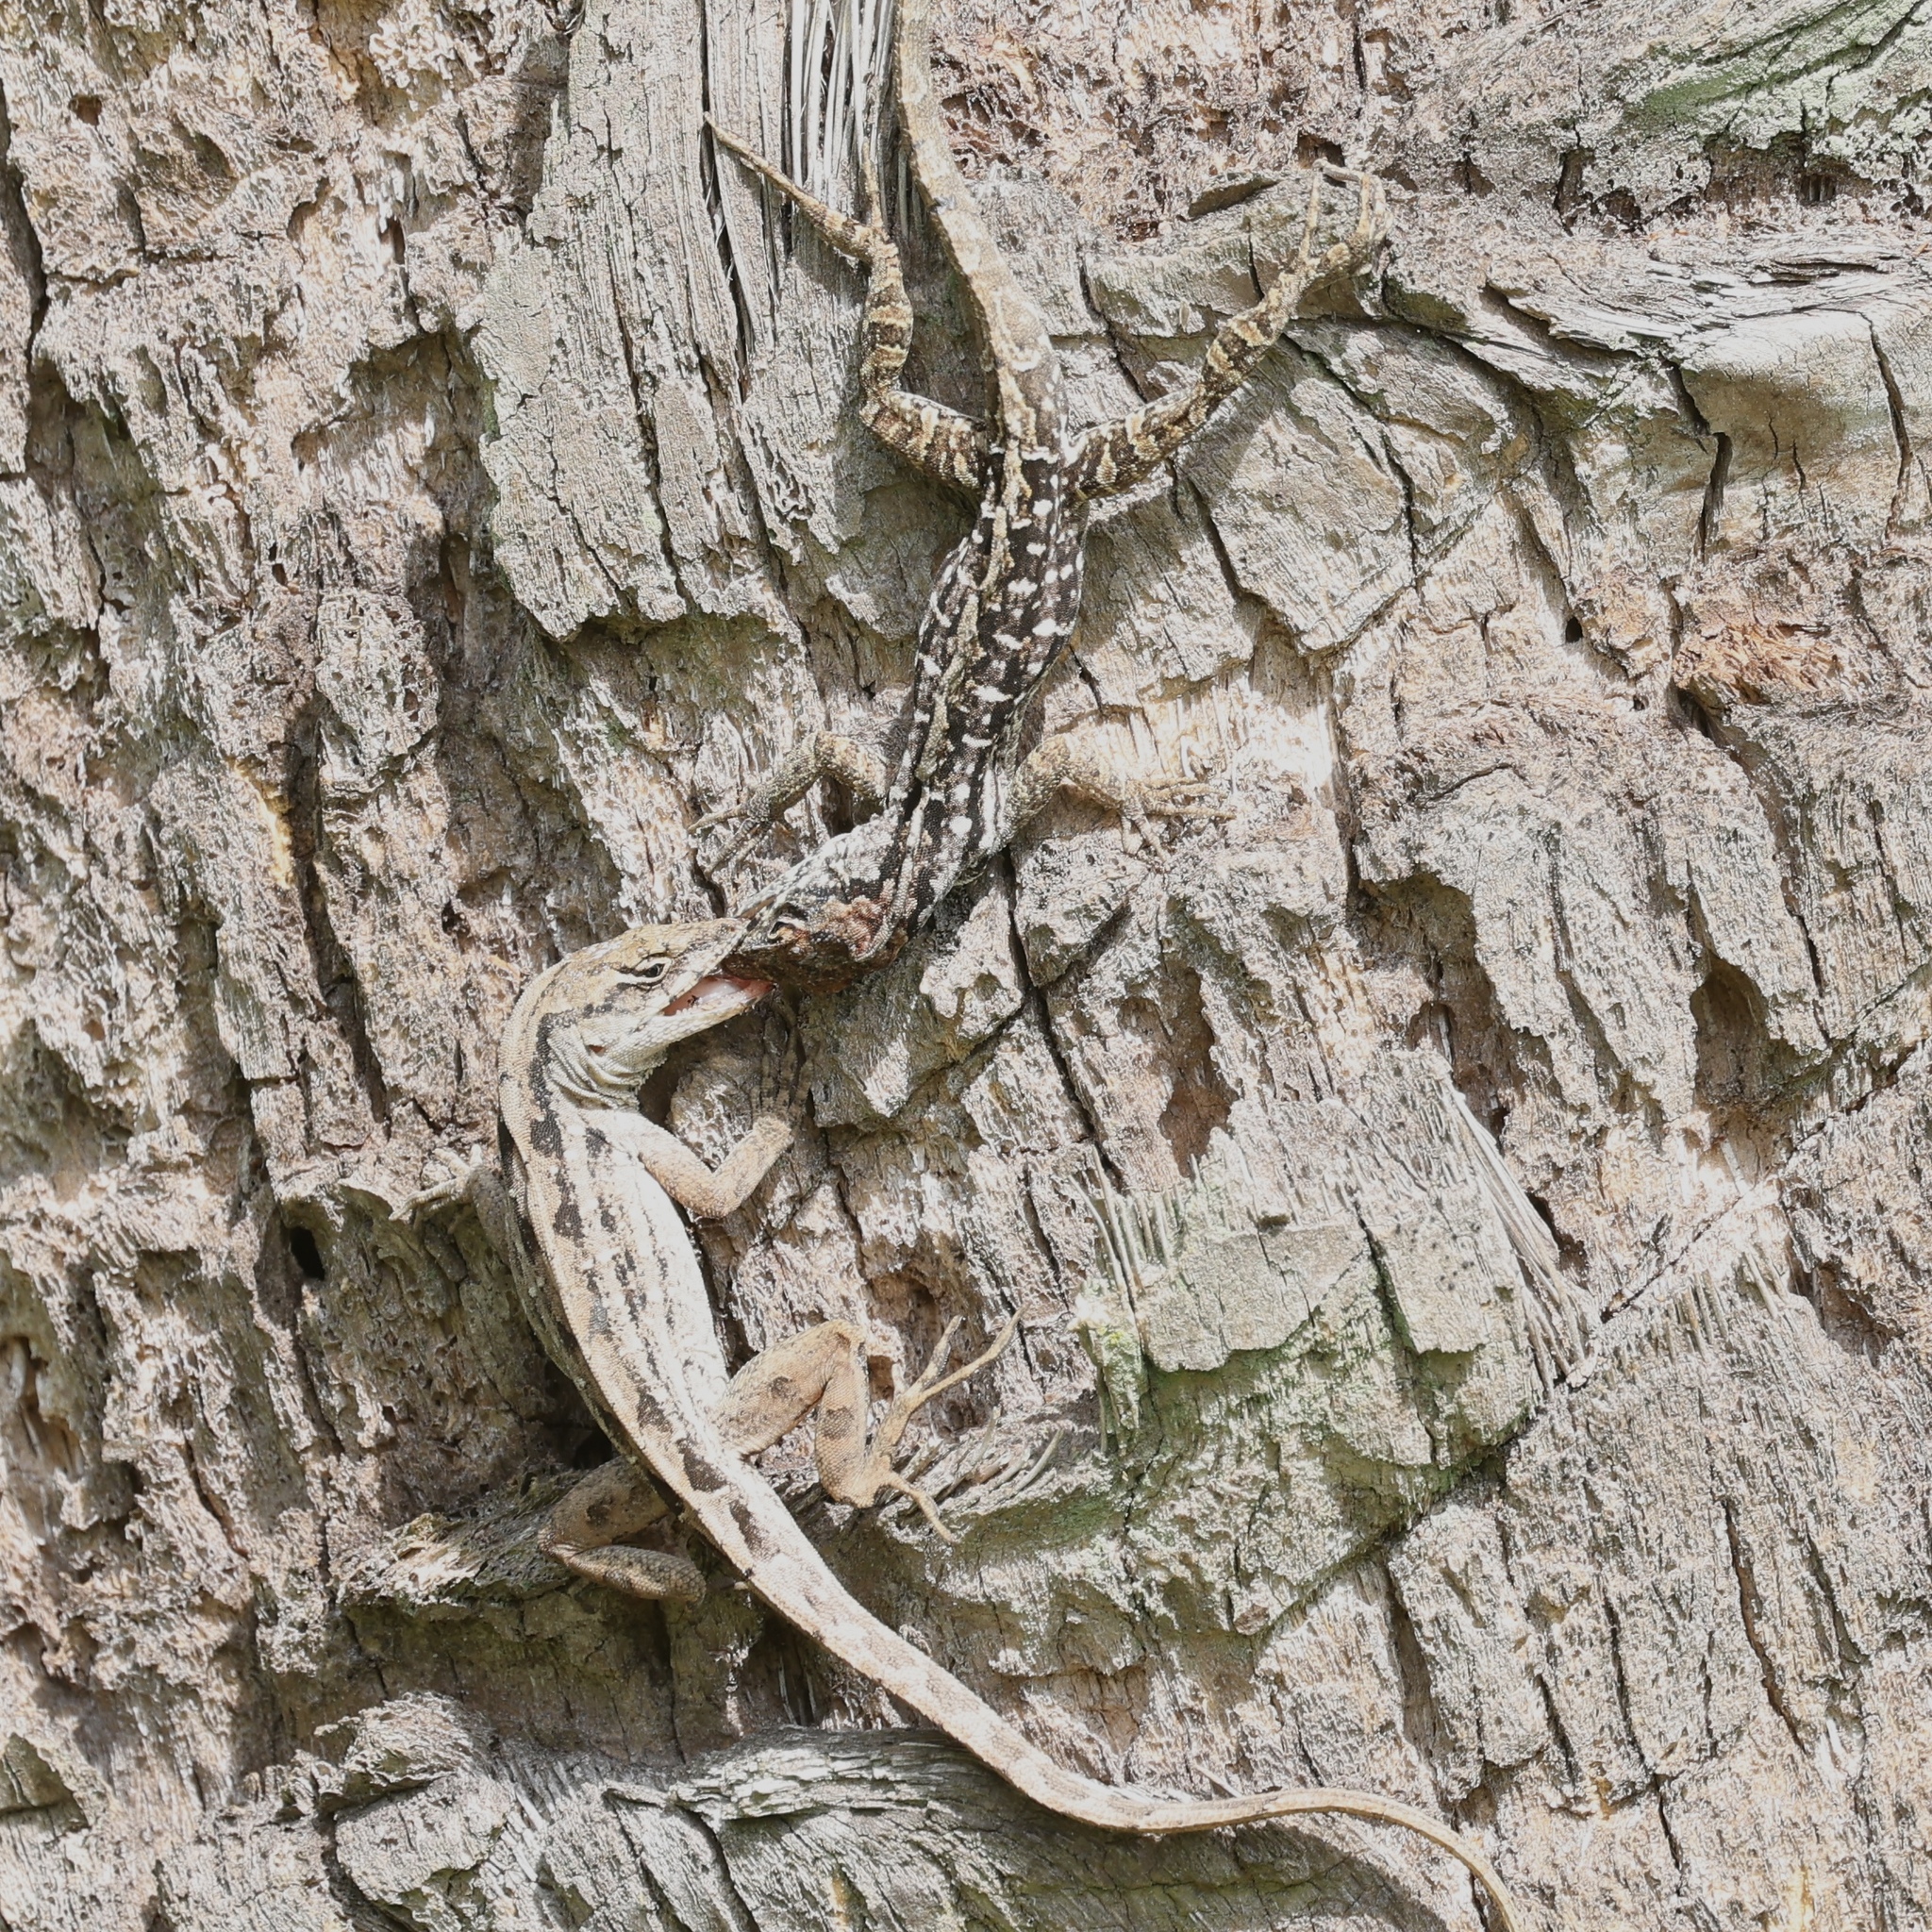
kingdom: Animalia
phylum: Chordata
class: Squamata
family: Dactyloidae
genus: Anolis
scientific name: Anolis sagrei
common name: Brown anole
